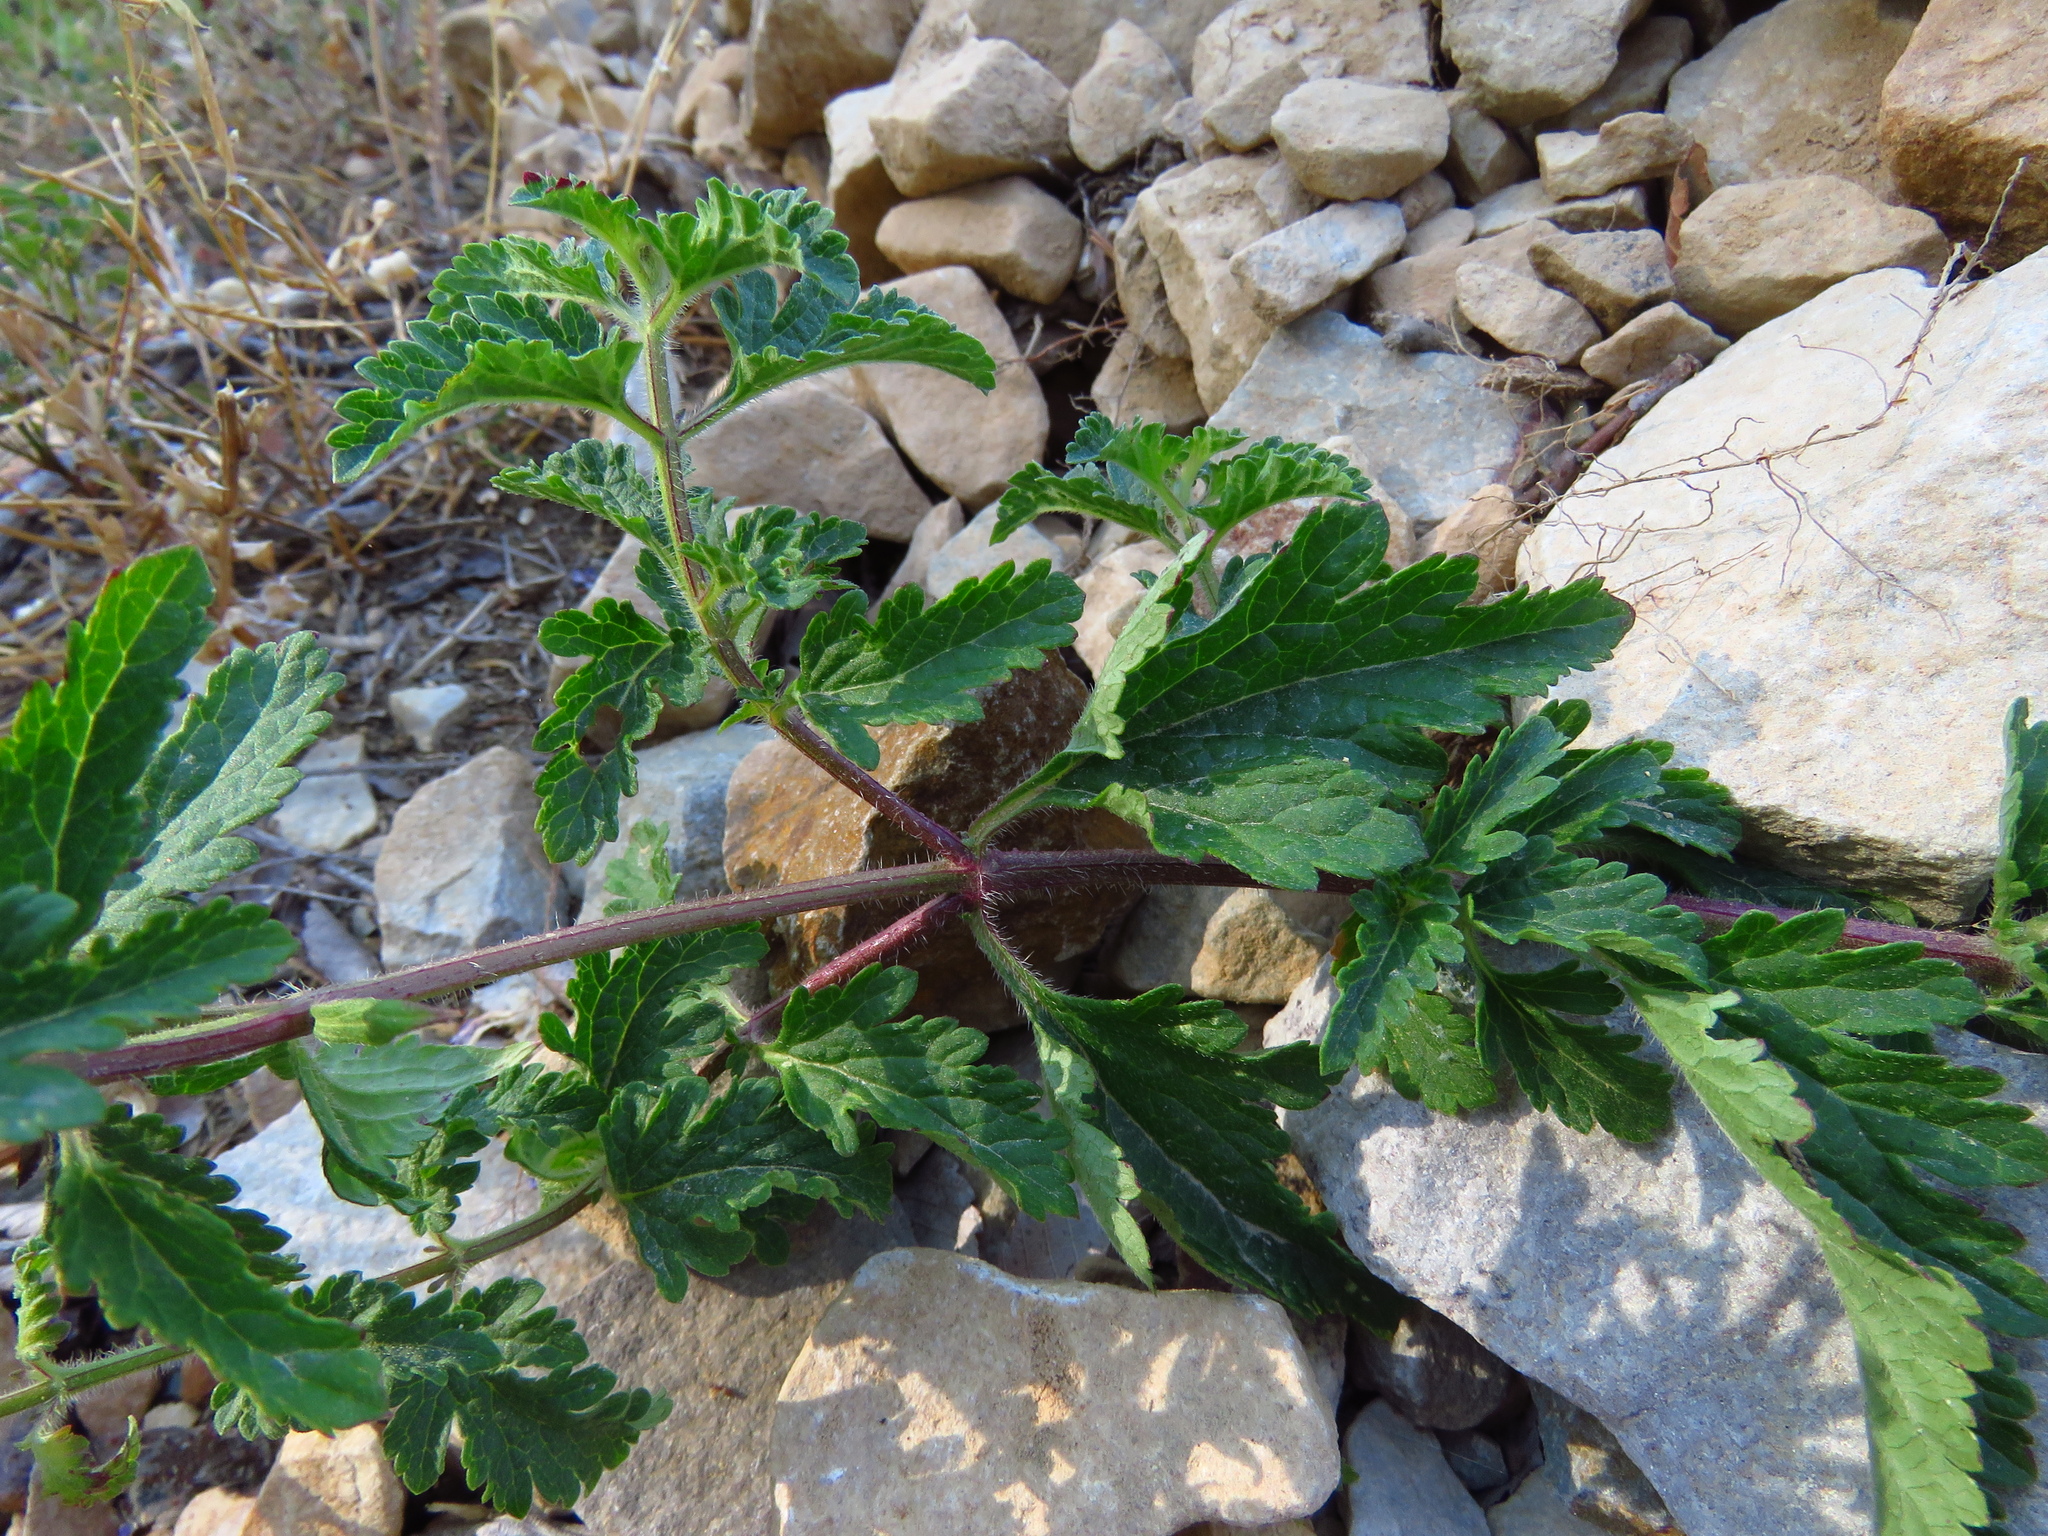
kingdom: Plantae
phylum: Tracheophyta
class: Magnoliopsida
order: Lamiales
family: Verbenaceae
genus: Verbena
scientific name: Verbena canadensis
